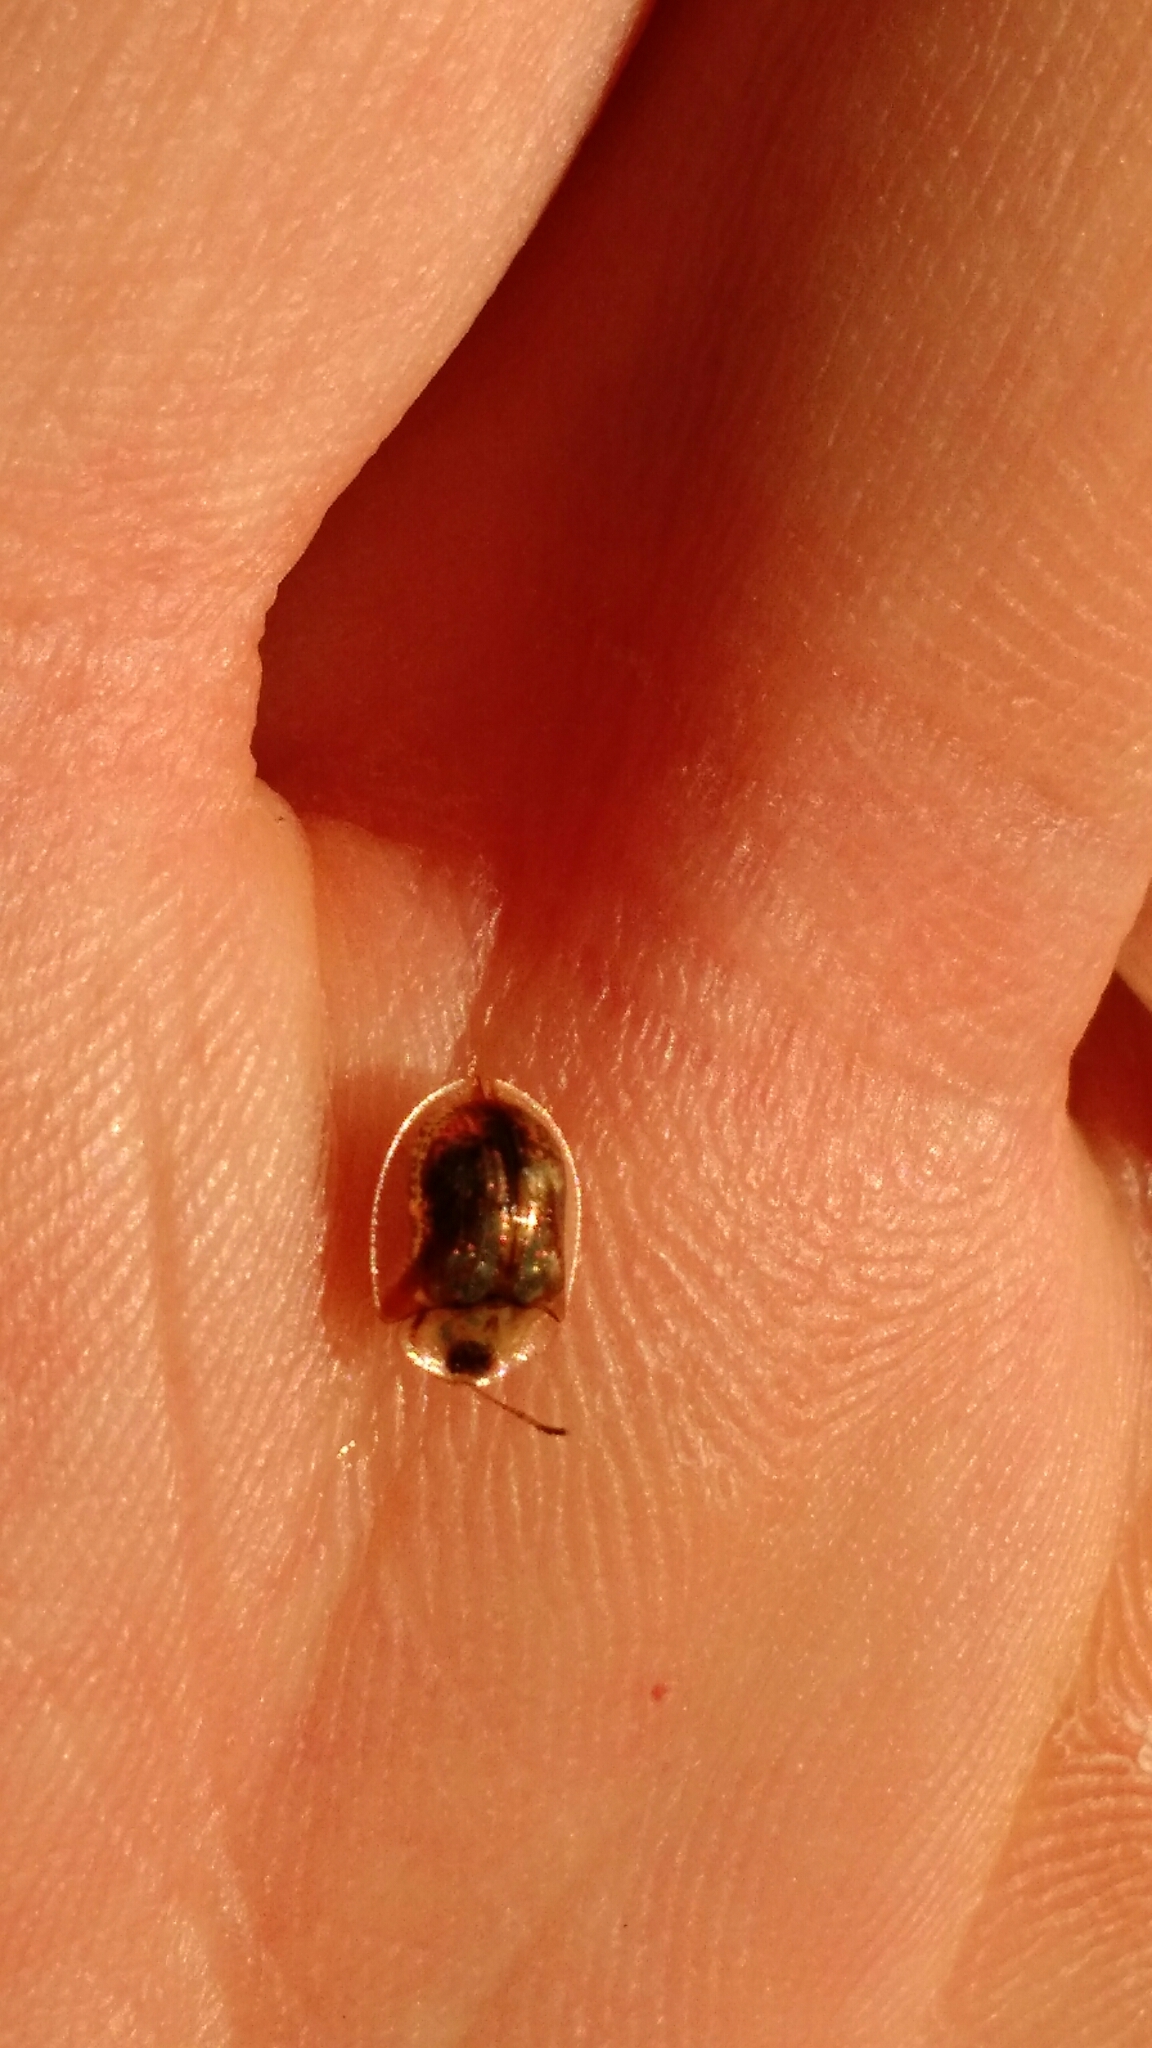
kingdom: Animalia
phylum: Arthropoda
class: Insecta
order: Coleoptera
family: Chrysomelidae
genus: Deloyala
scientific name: Deloyala guttata
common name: Mottled tortoise beetle
